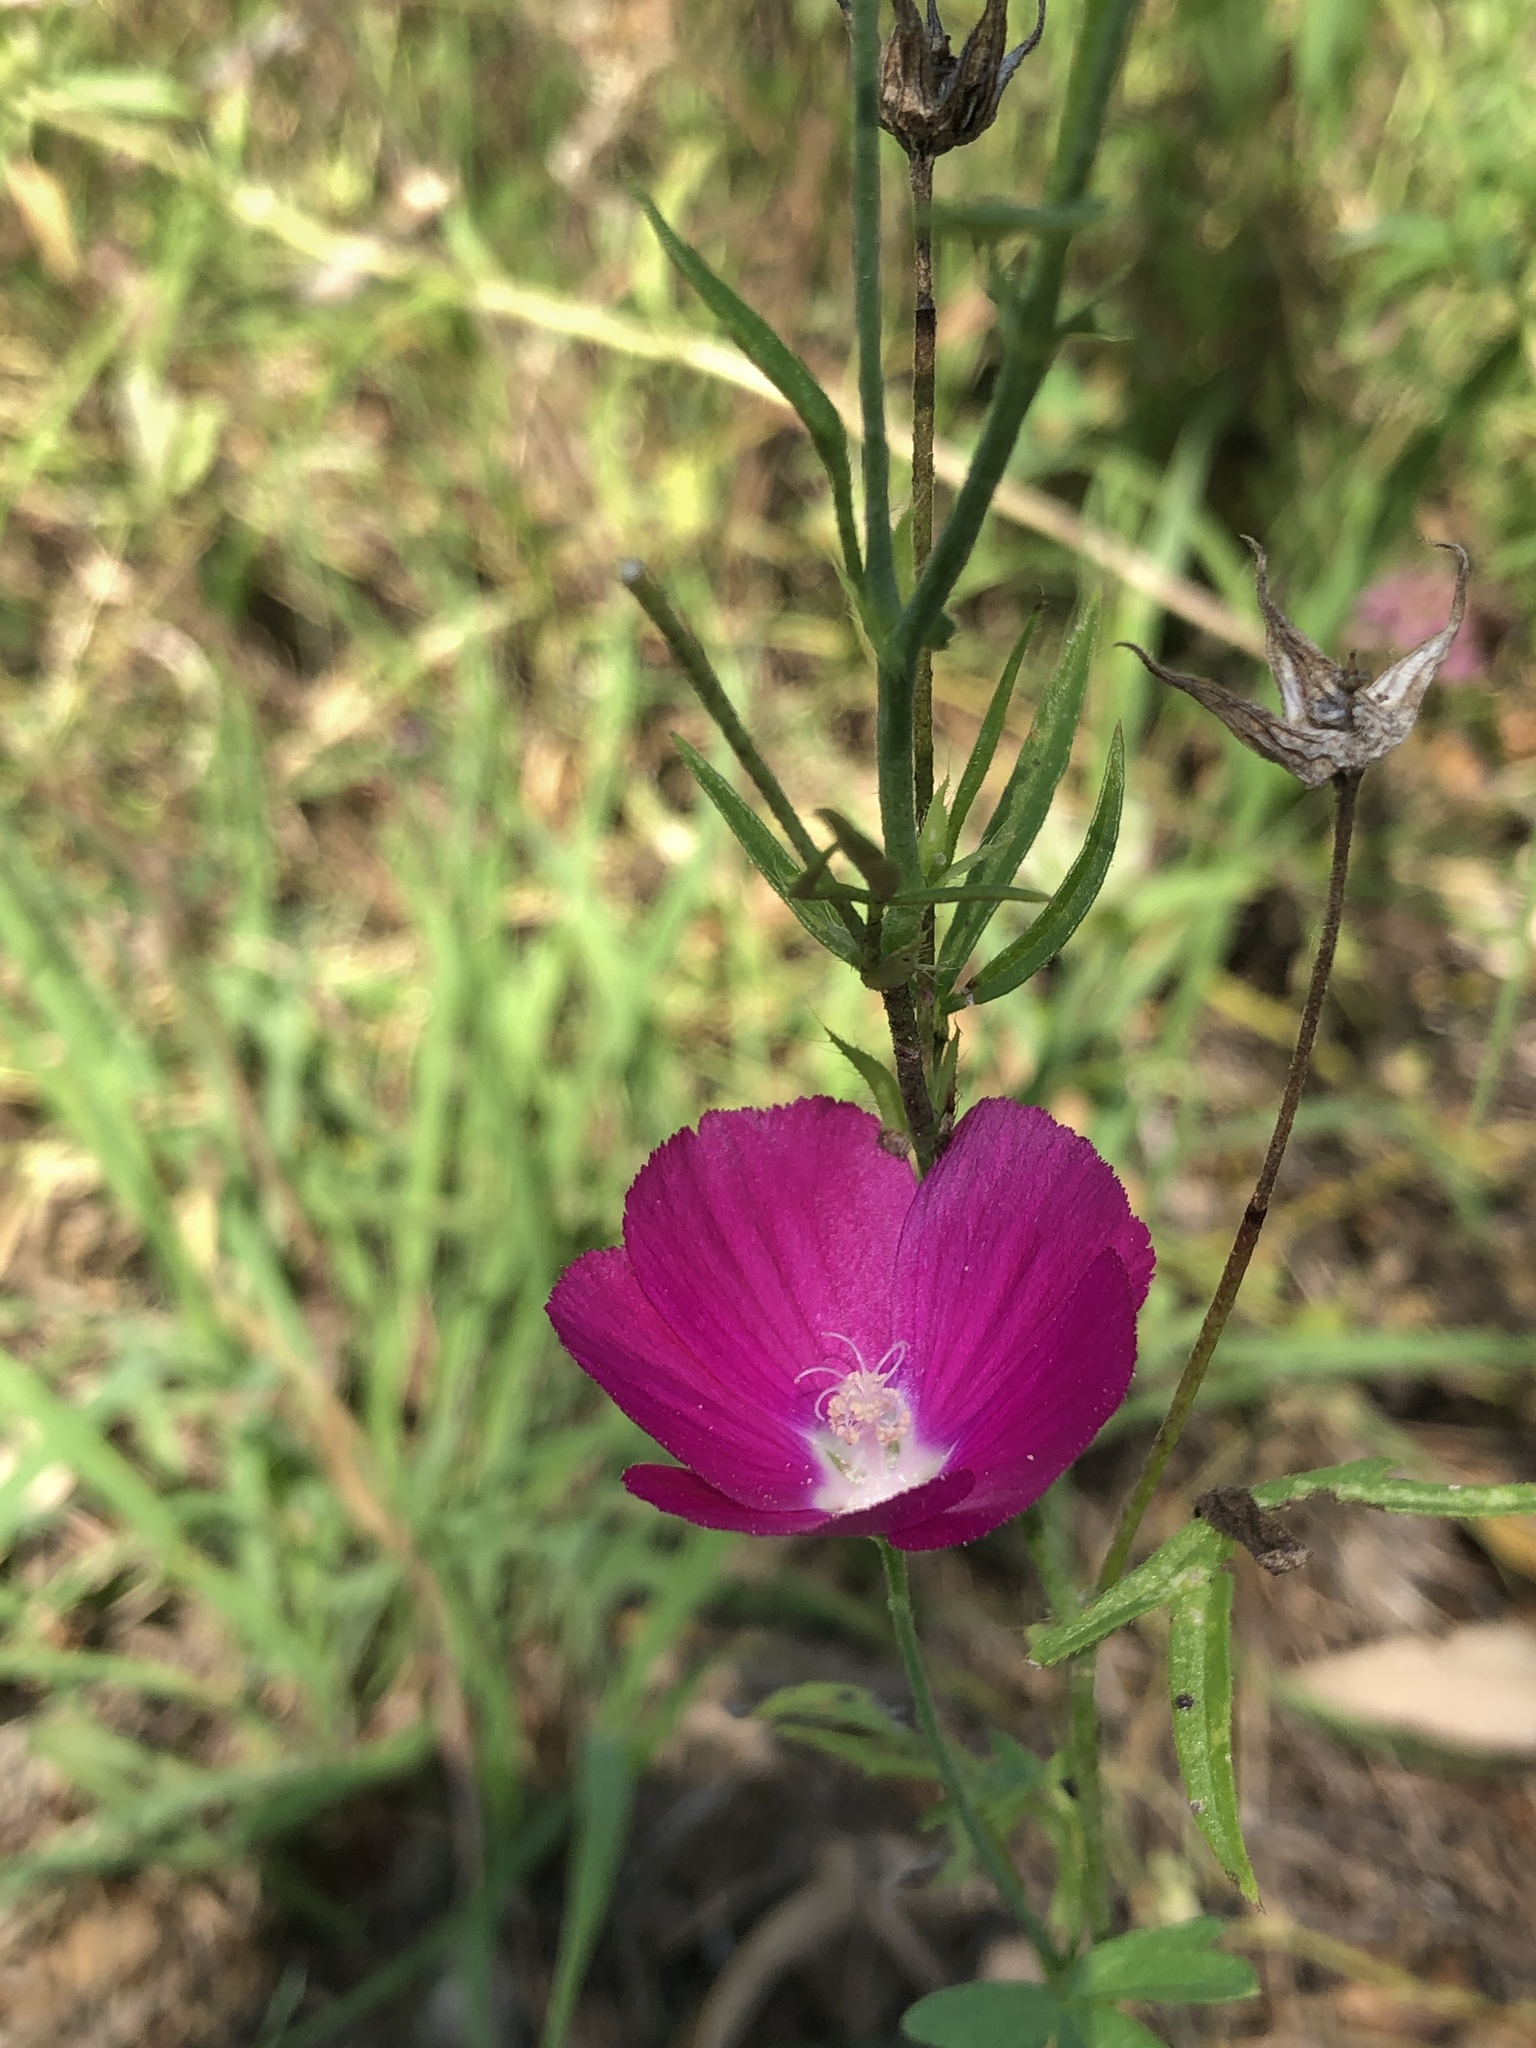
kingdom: Plantae
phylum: Tracheophyta
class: Magnoliopsida
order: Malvales
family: Malvaceae
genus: Callirhoe
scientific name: Callirhoe leiocarpa
